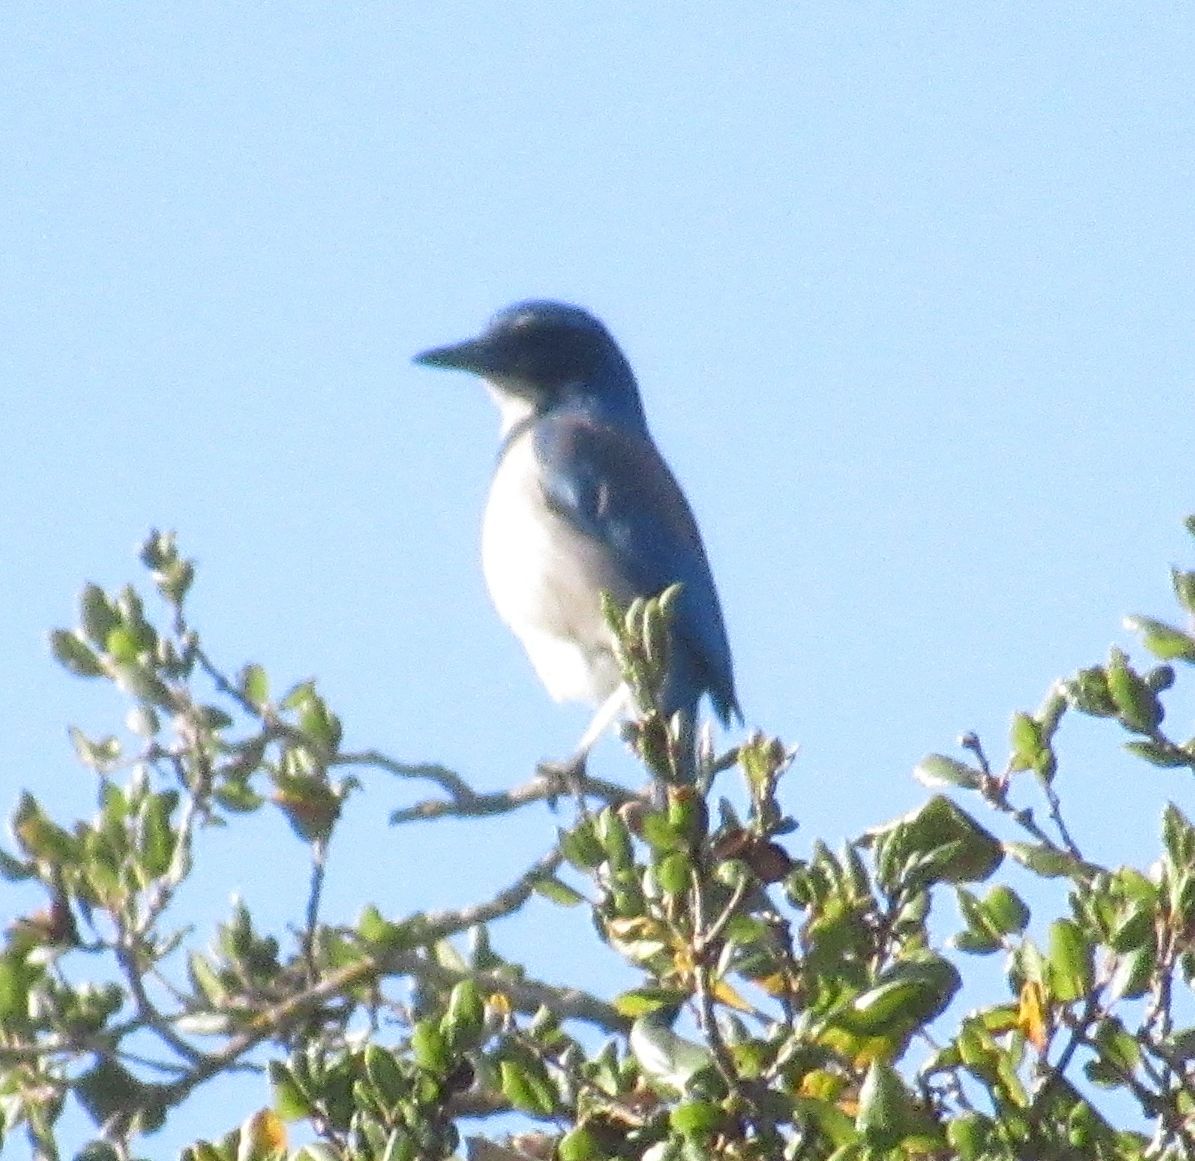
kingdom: Animalia
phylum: Chordata
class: Aves
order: Passeriformes
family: Corvidae
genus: Aphelocoma
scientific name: Aphelocoma californica
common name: California scrub-jay
